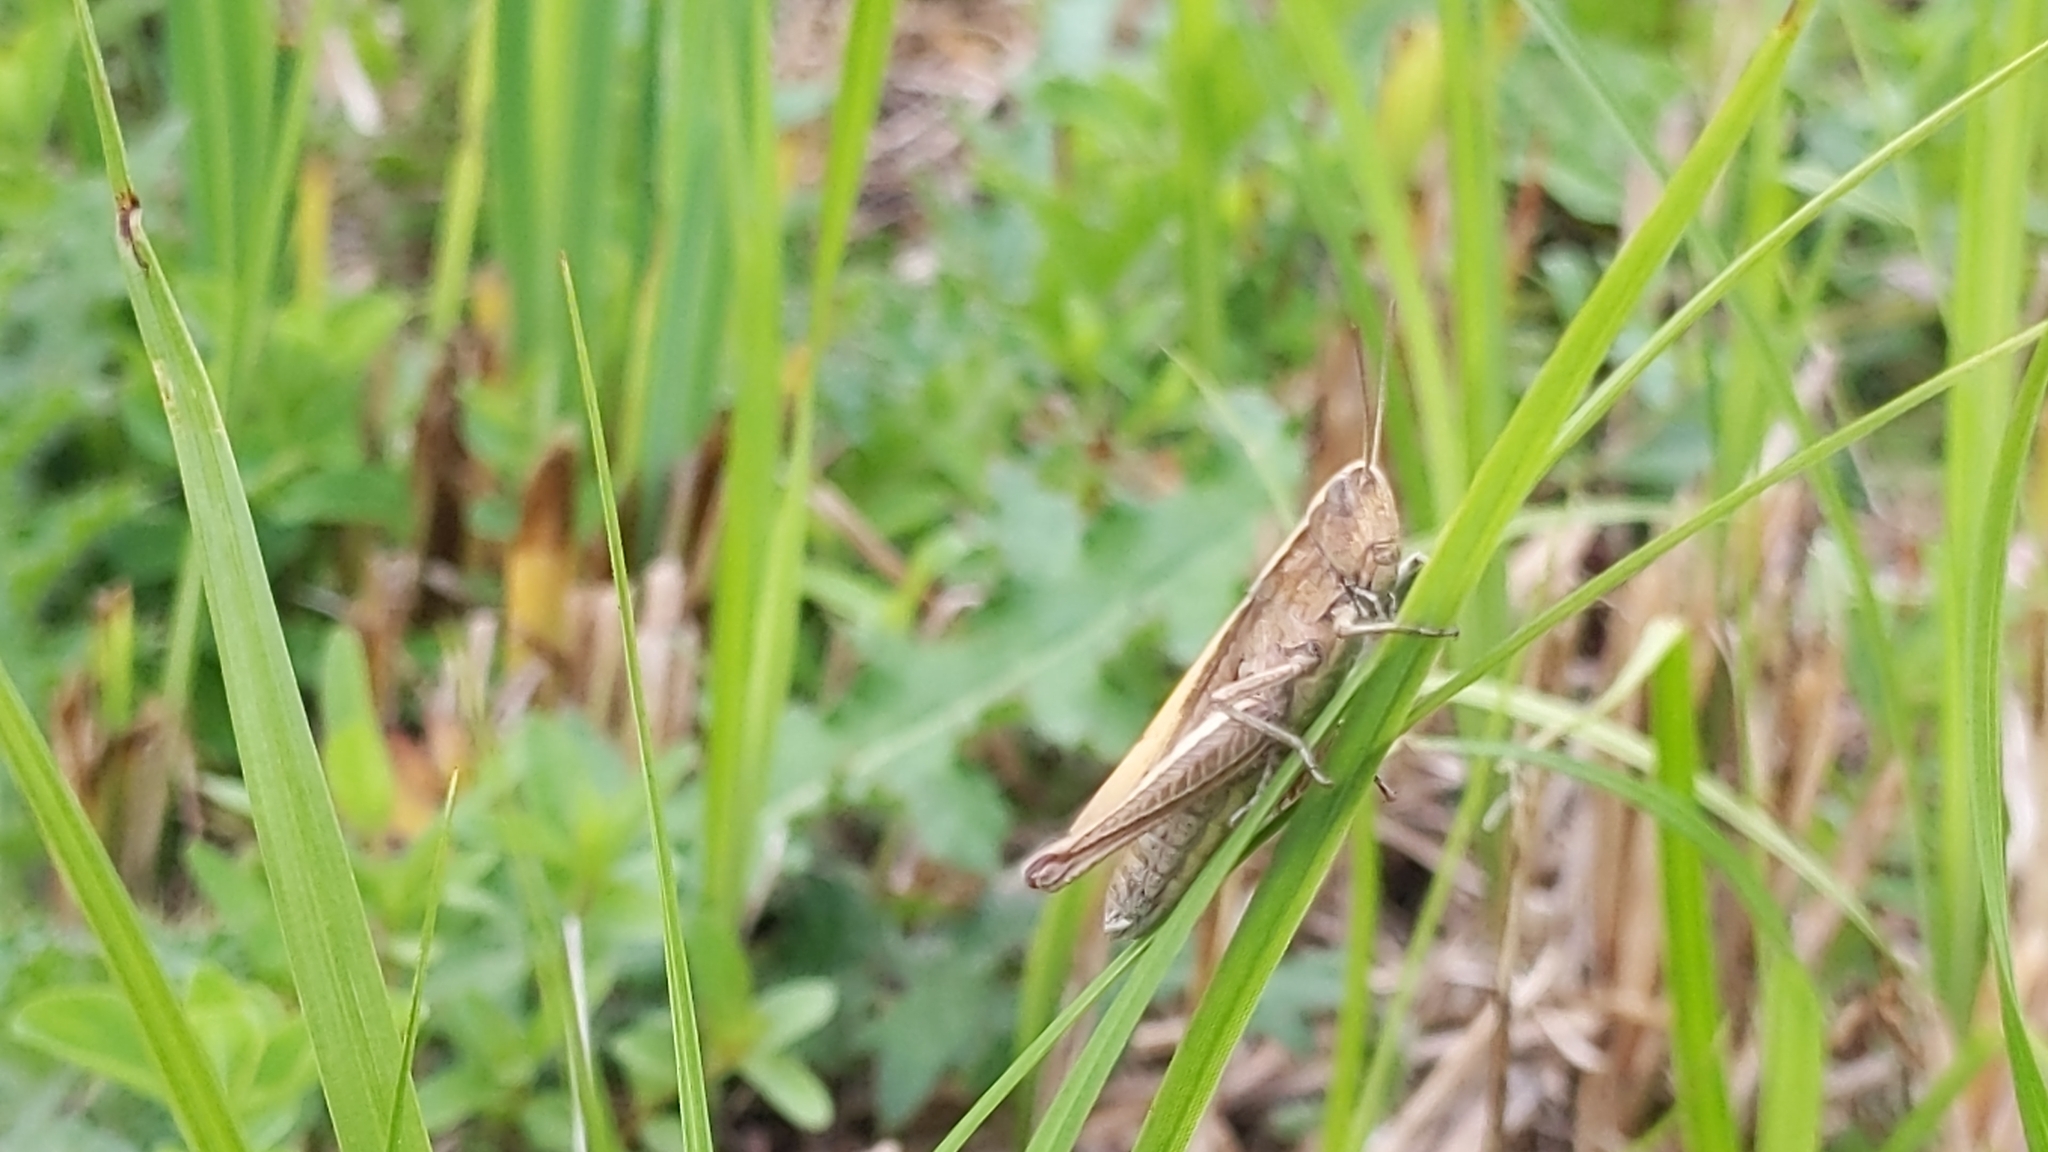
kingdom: Animalia
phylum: Arthropoda
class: Insecta
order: Orthoptera
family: Acrididae
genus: Chorthippus
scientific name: Chorthippus dorsatus
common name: Steppe grasshopper
